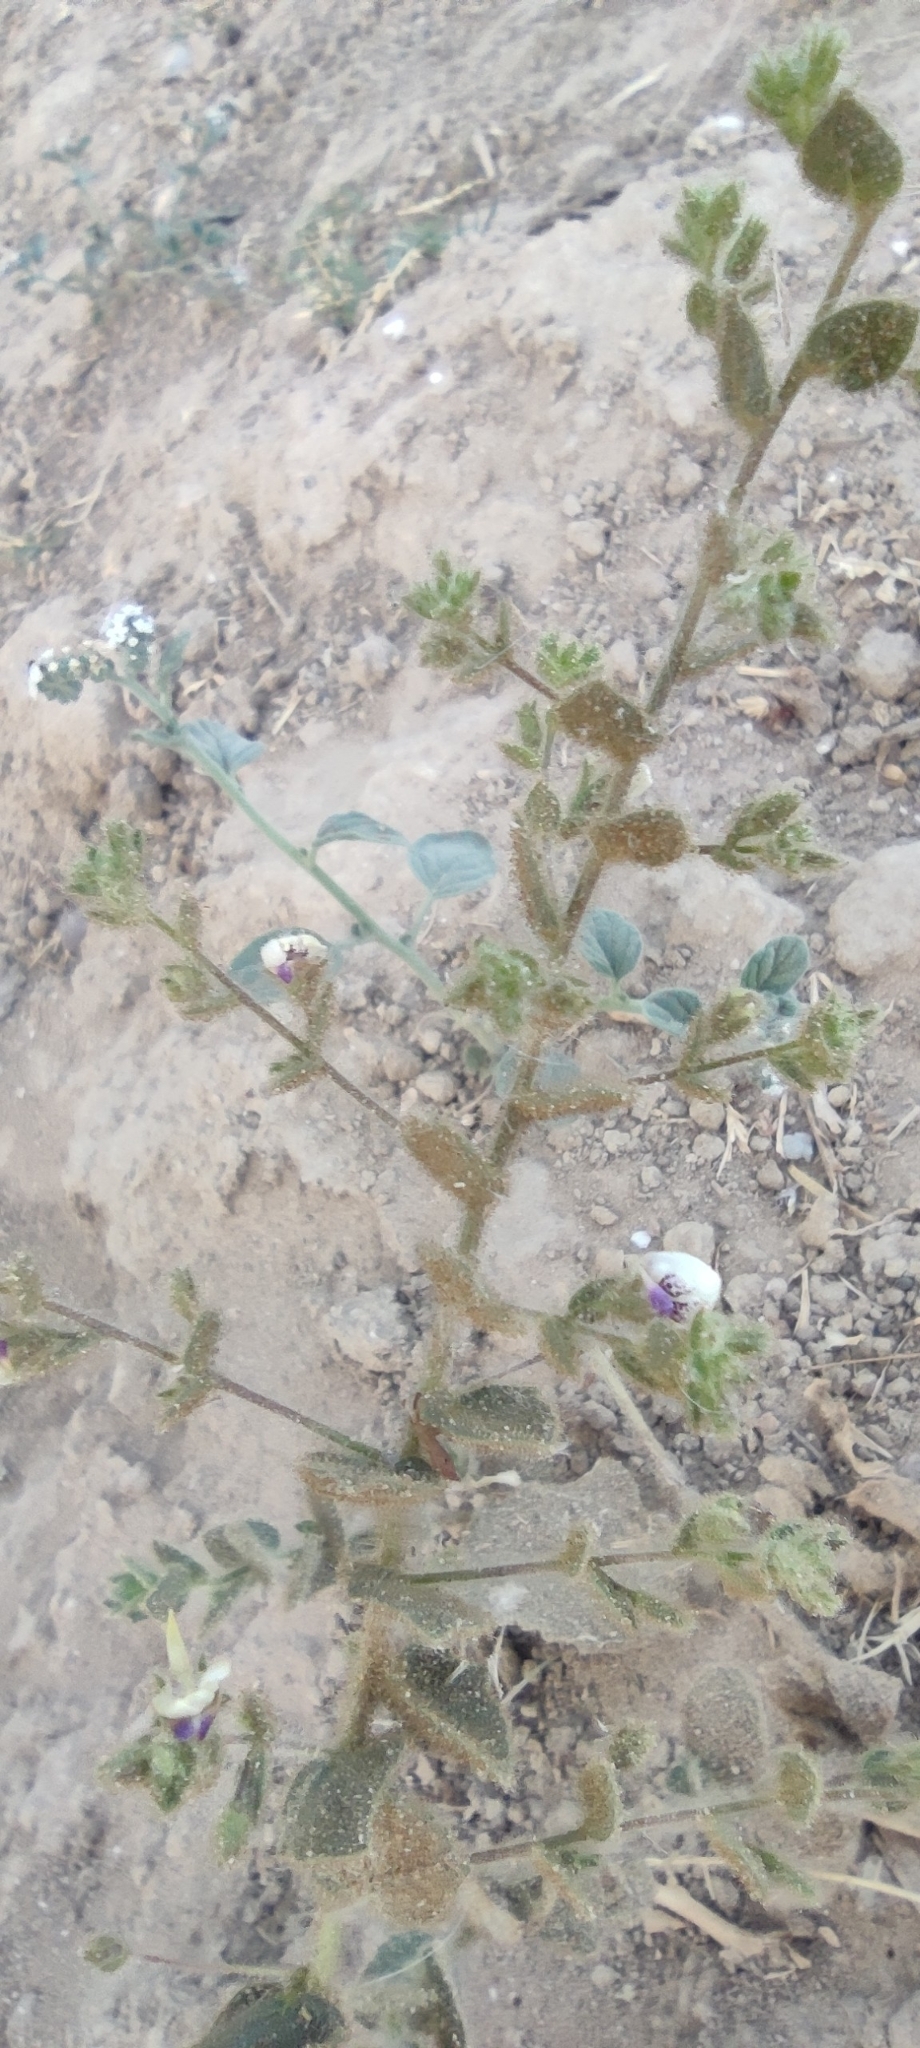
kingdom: Plantae
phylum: Tracheophyta
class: Magnoliopsida
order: Lamiales
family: Plantaginaceae
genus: Kickxia
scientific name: Kickxia lanigera
